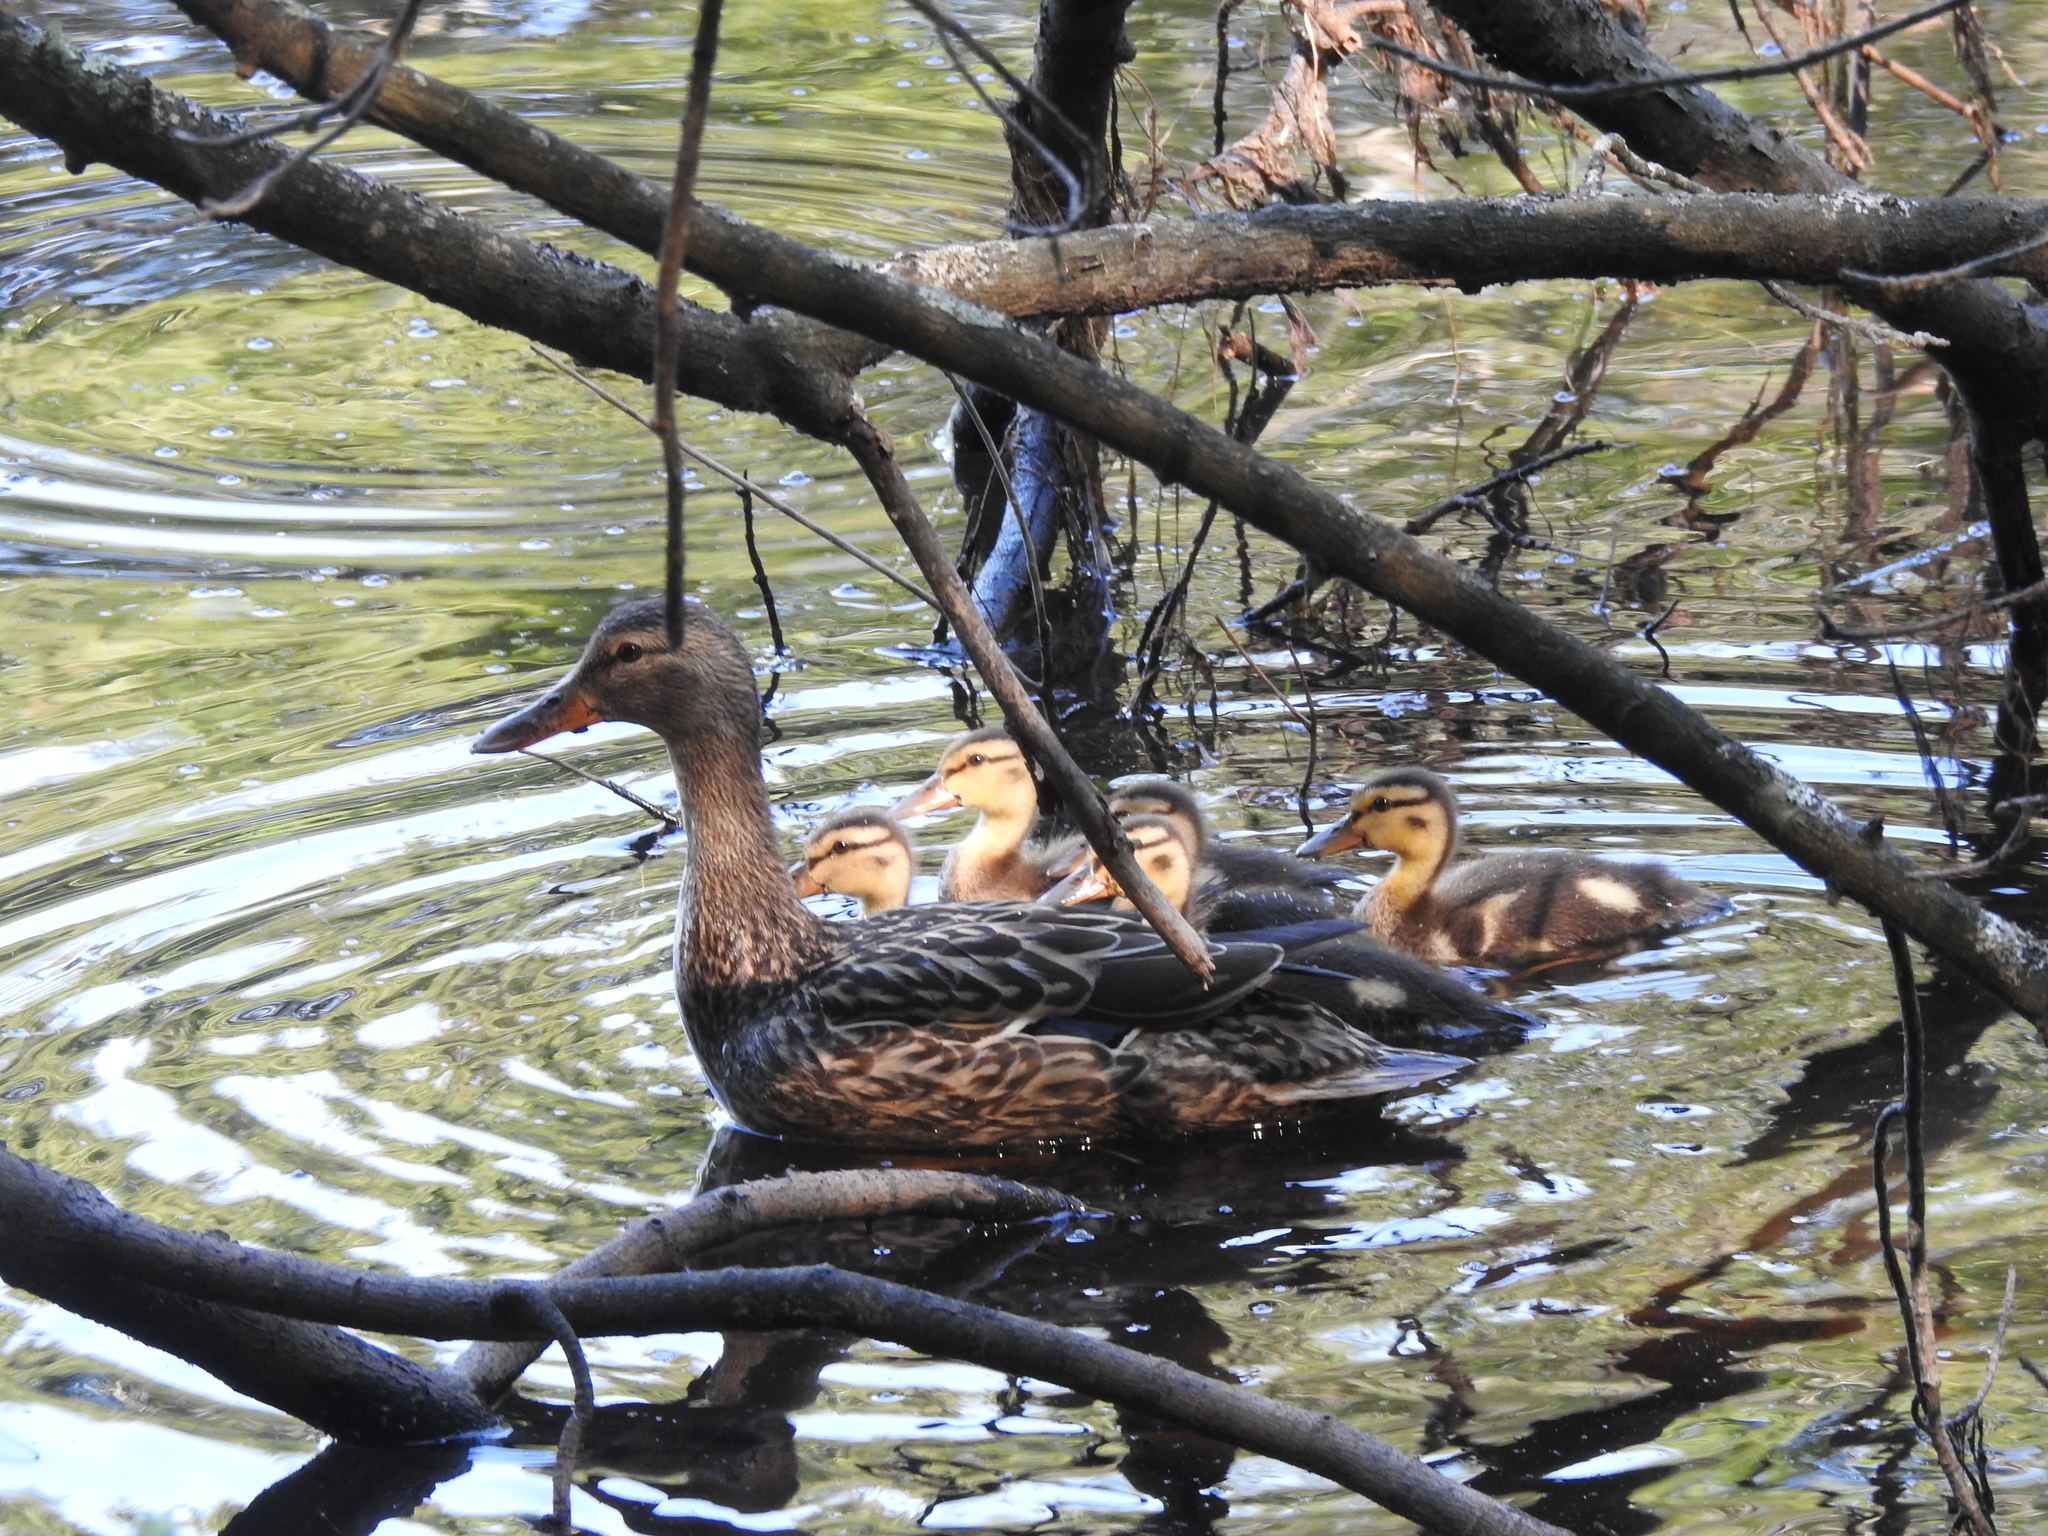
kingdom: Animalia
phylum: Chordata
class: Aves
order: Anseriformes
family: Anatidae
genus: Anas
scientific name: Anas platyrhynchos
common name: Mallard
